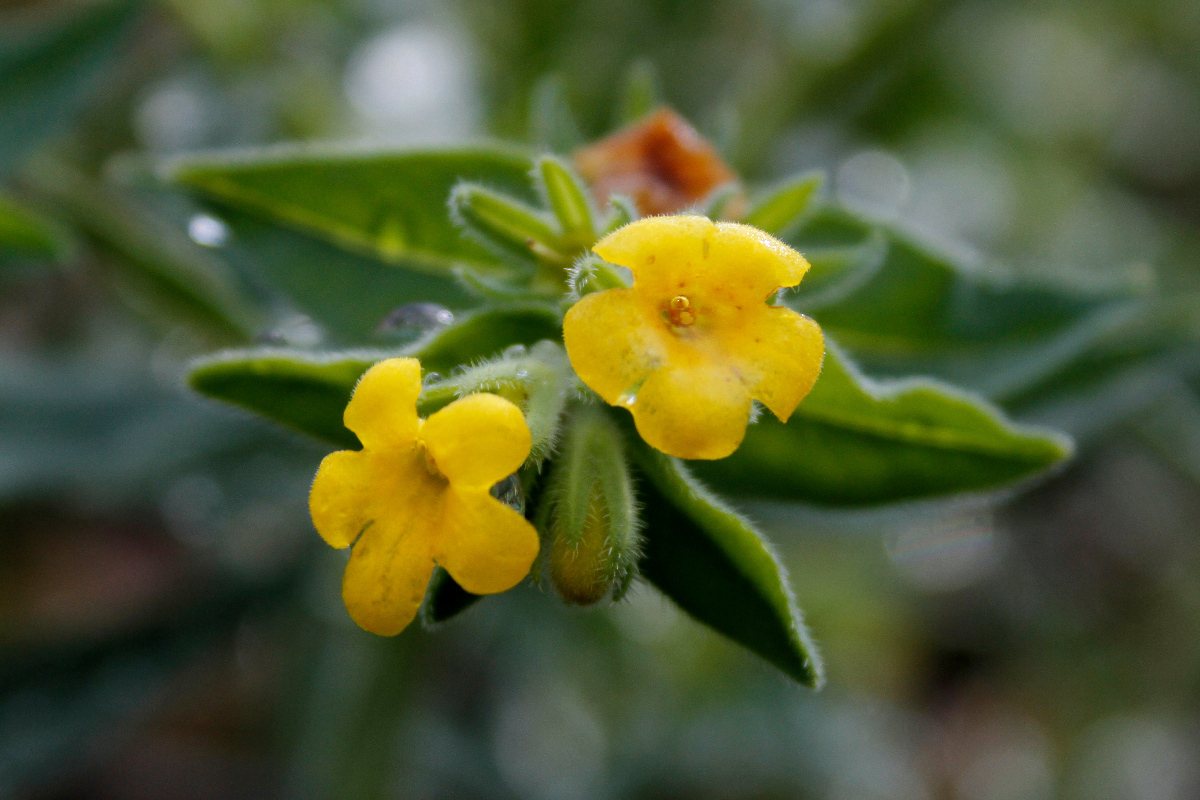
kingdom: Plantae
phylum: Tracheophyta
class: Magnoliopsida
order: Boraginales
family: Boraginaceae
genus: Lithospermum
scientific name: Lithospermum californicum
